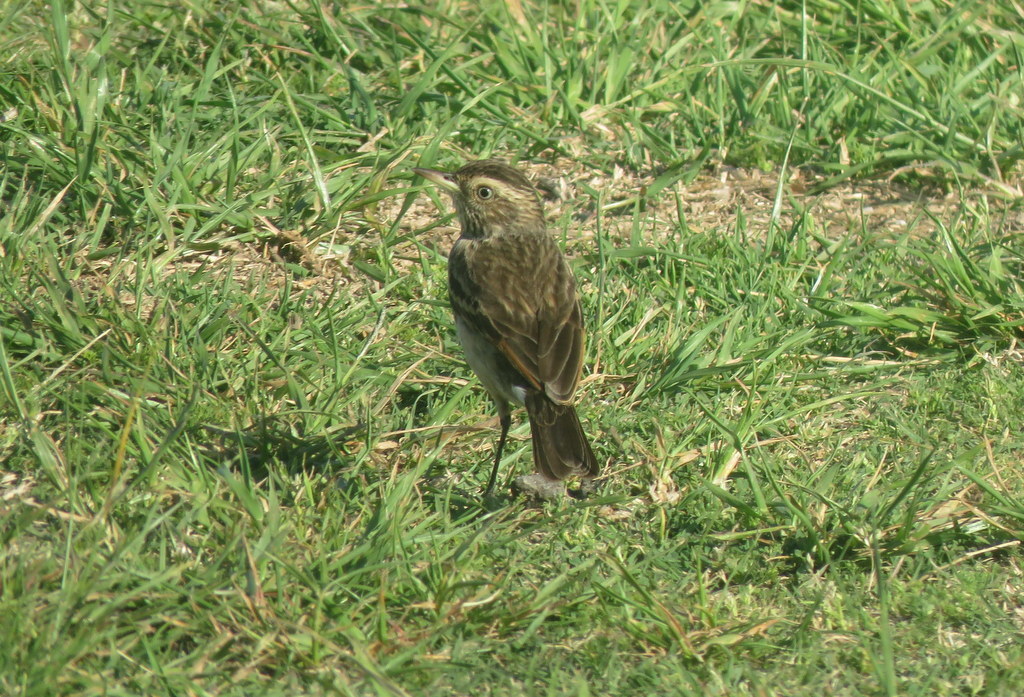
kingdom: Animalia
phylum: Chordata
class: Aves
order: Passeriformes
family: Tyrannidae
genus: Hymenops
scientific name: Hymenops perspicillatus
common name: Spectacled tyrant
